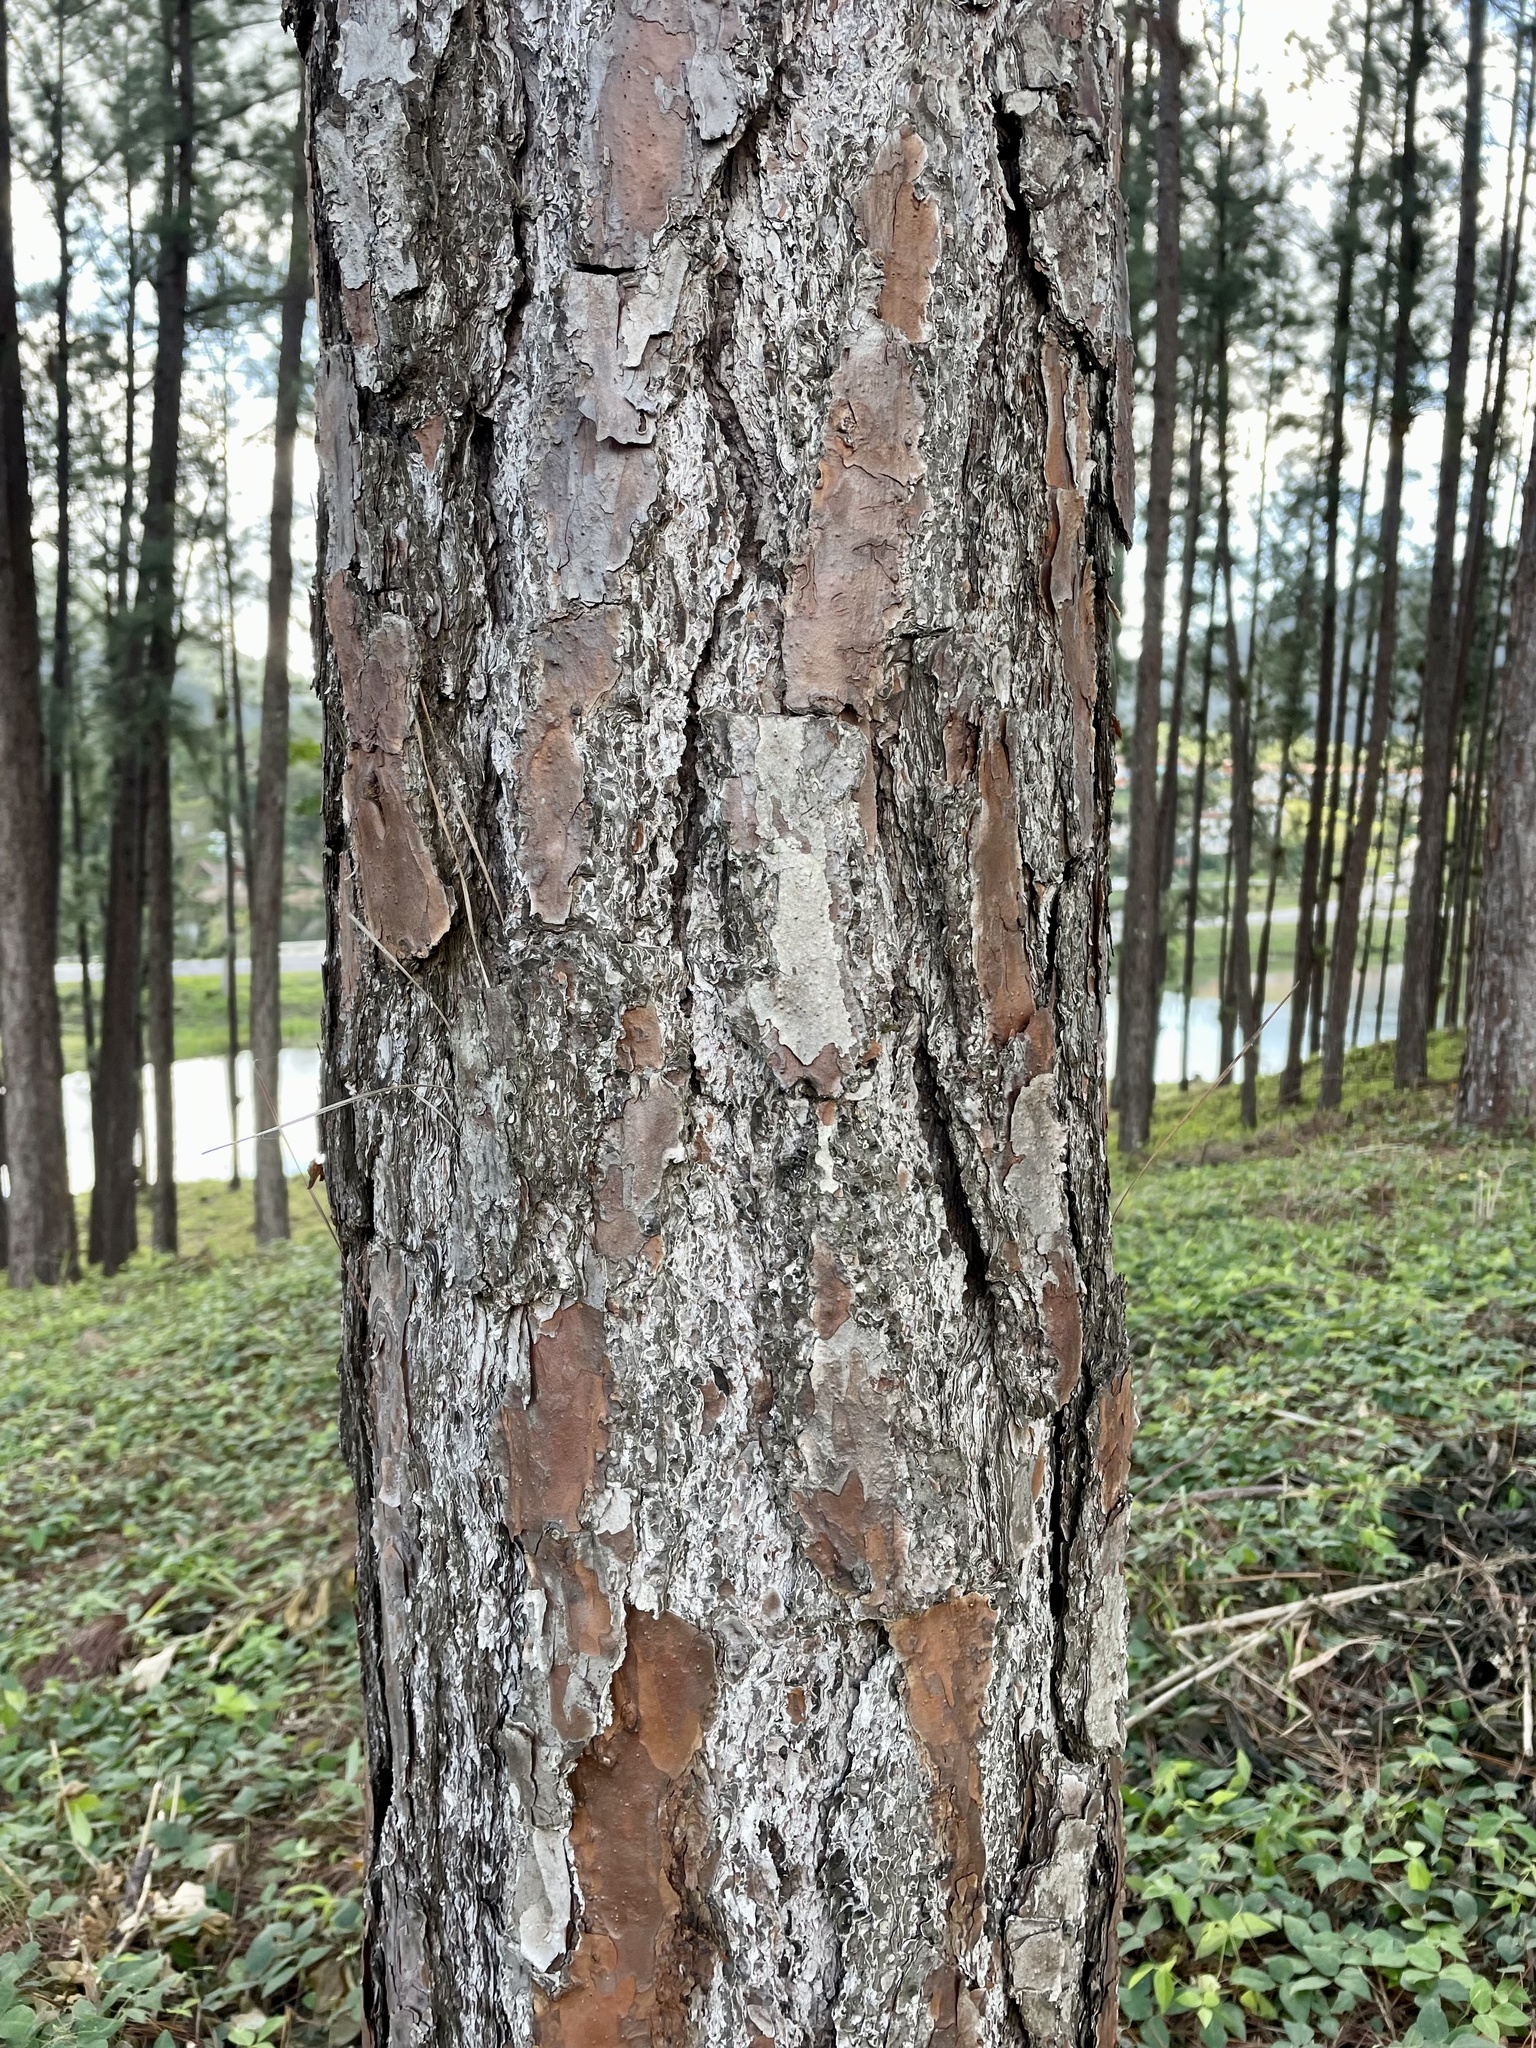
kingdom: Plantae
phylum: Tracheophyta
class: Pinopsida
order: Pinales
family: Pinaceae
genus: Pinus
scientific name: Pinus caribaea
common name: Caribbean pine
